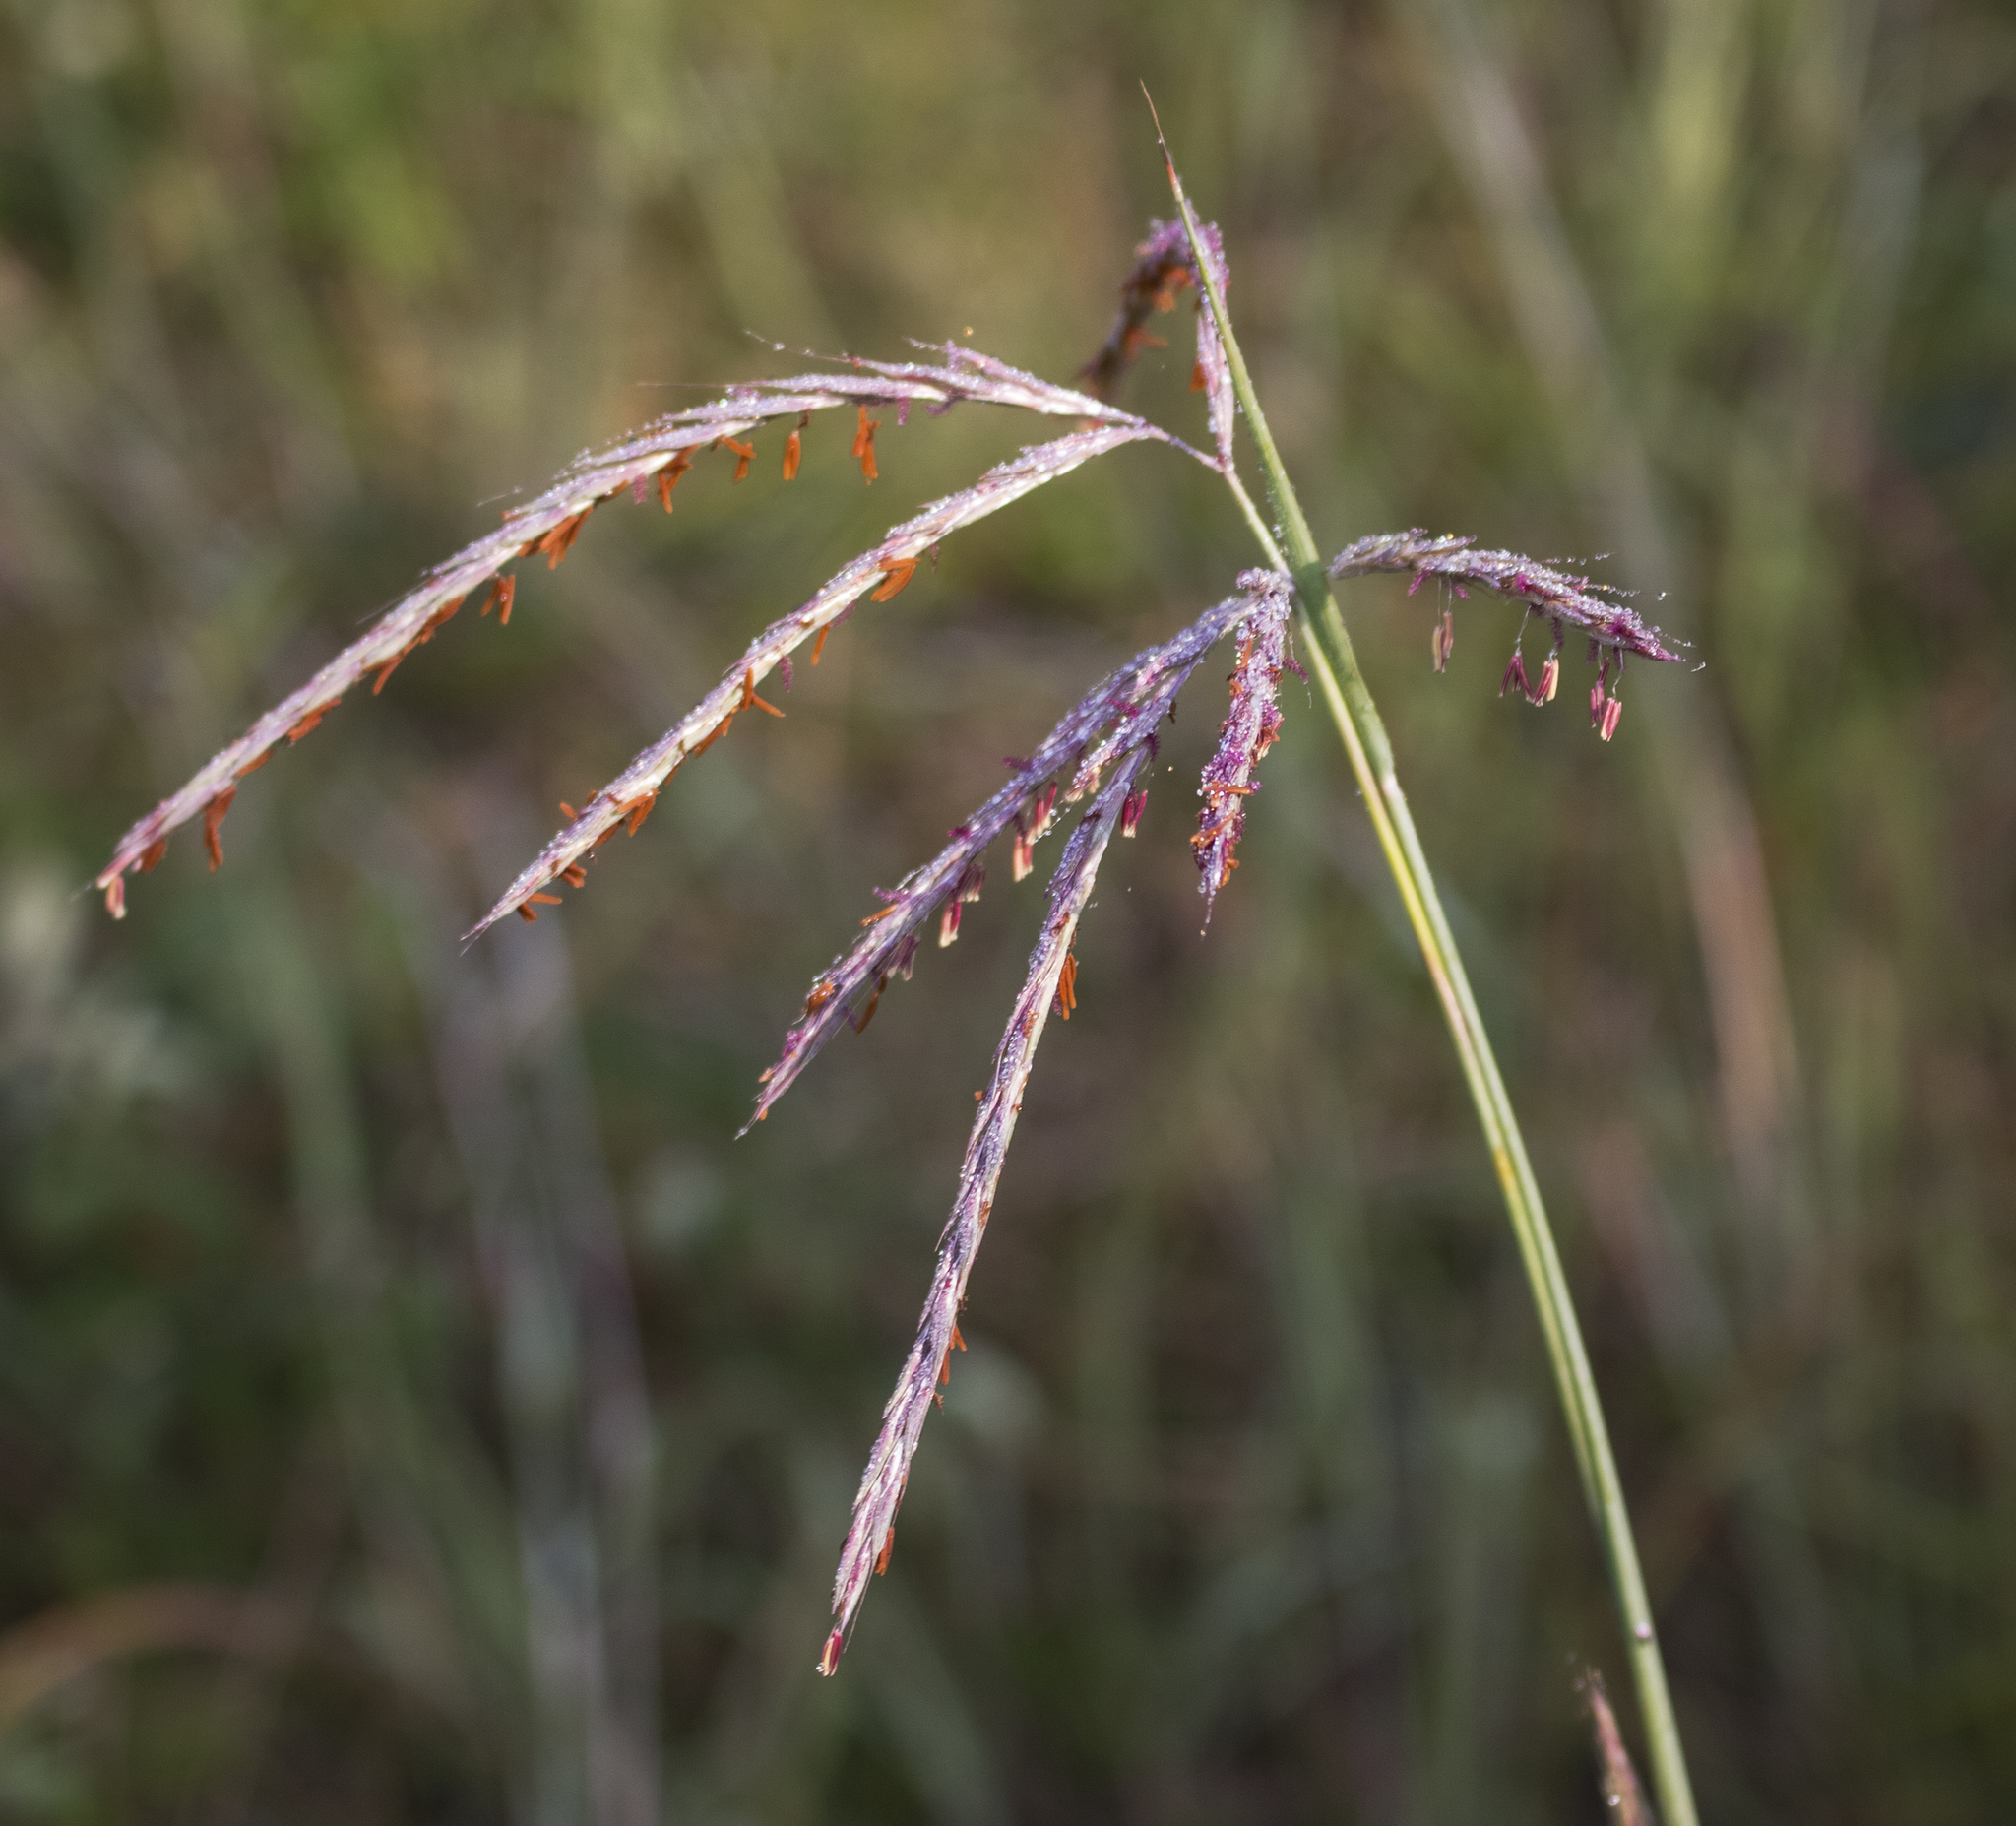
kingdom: Plantae
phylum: Tracheophyta
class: Liliopsida
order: Poales
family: Poaceae
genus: Andropogon
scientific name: Andropogon gerardi
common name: Big bluestem
